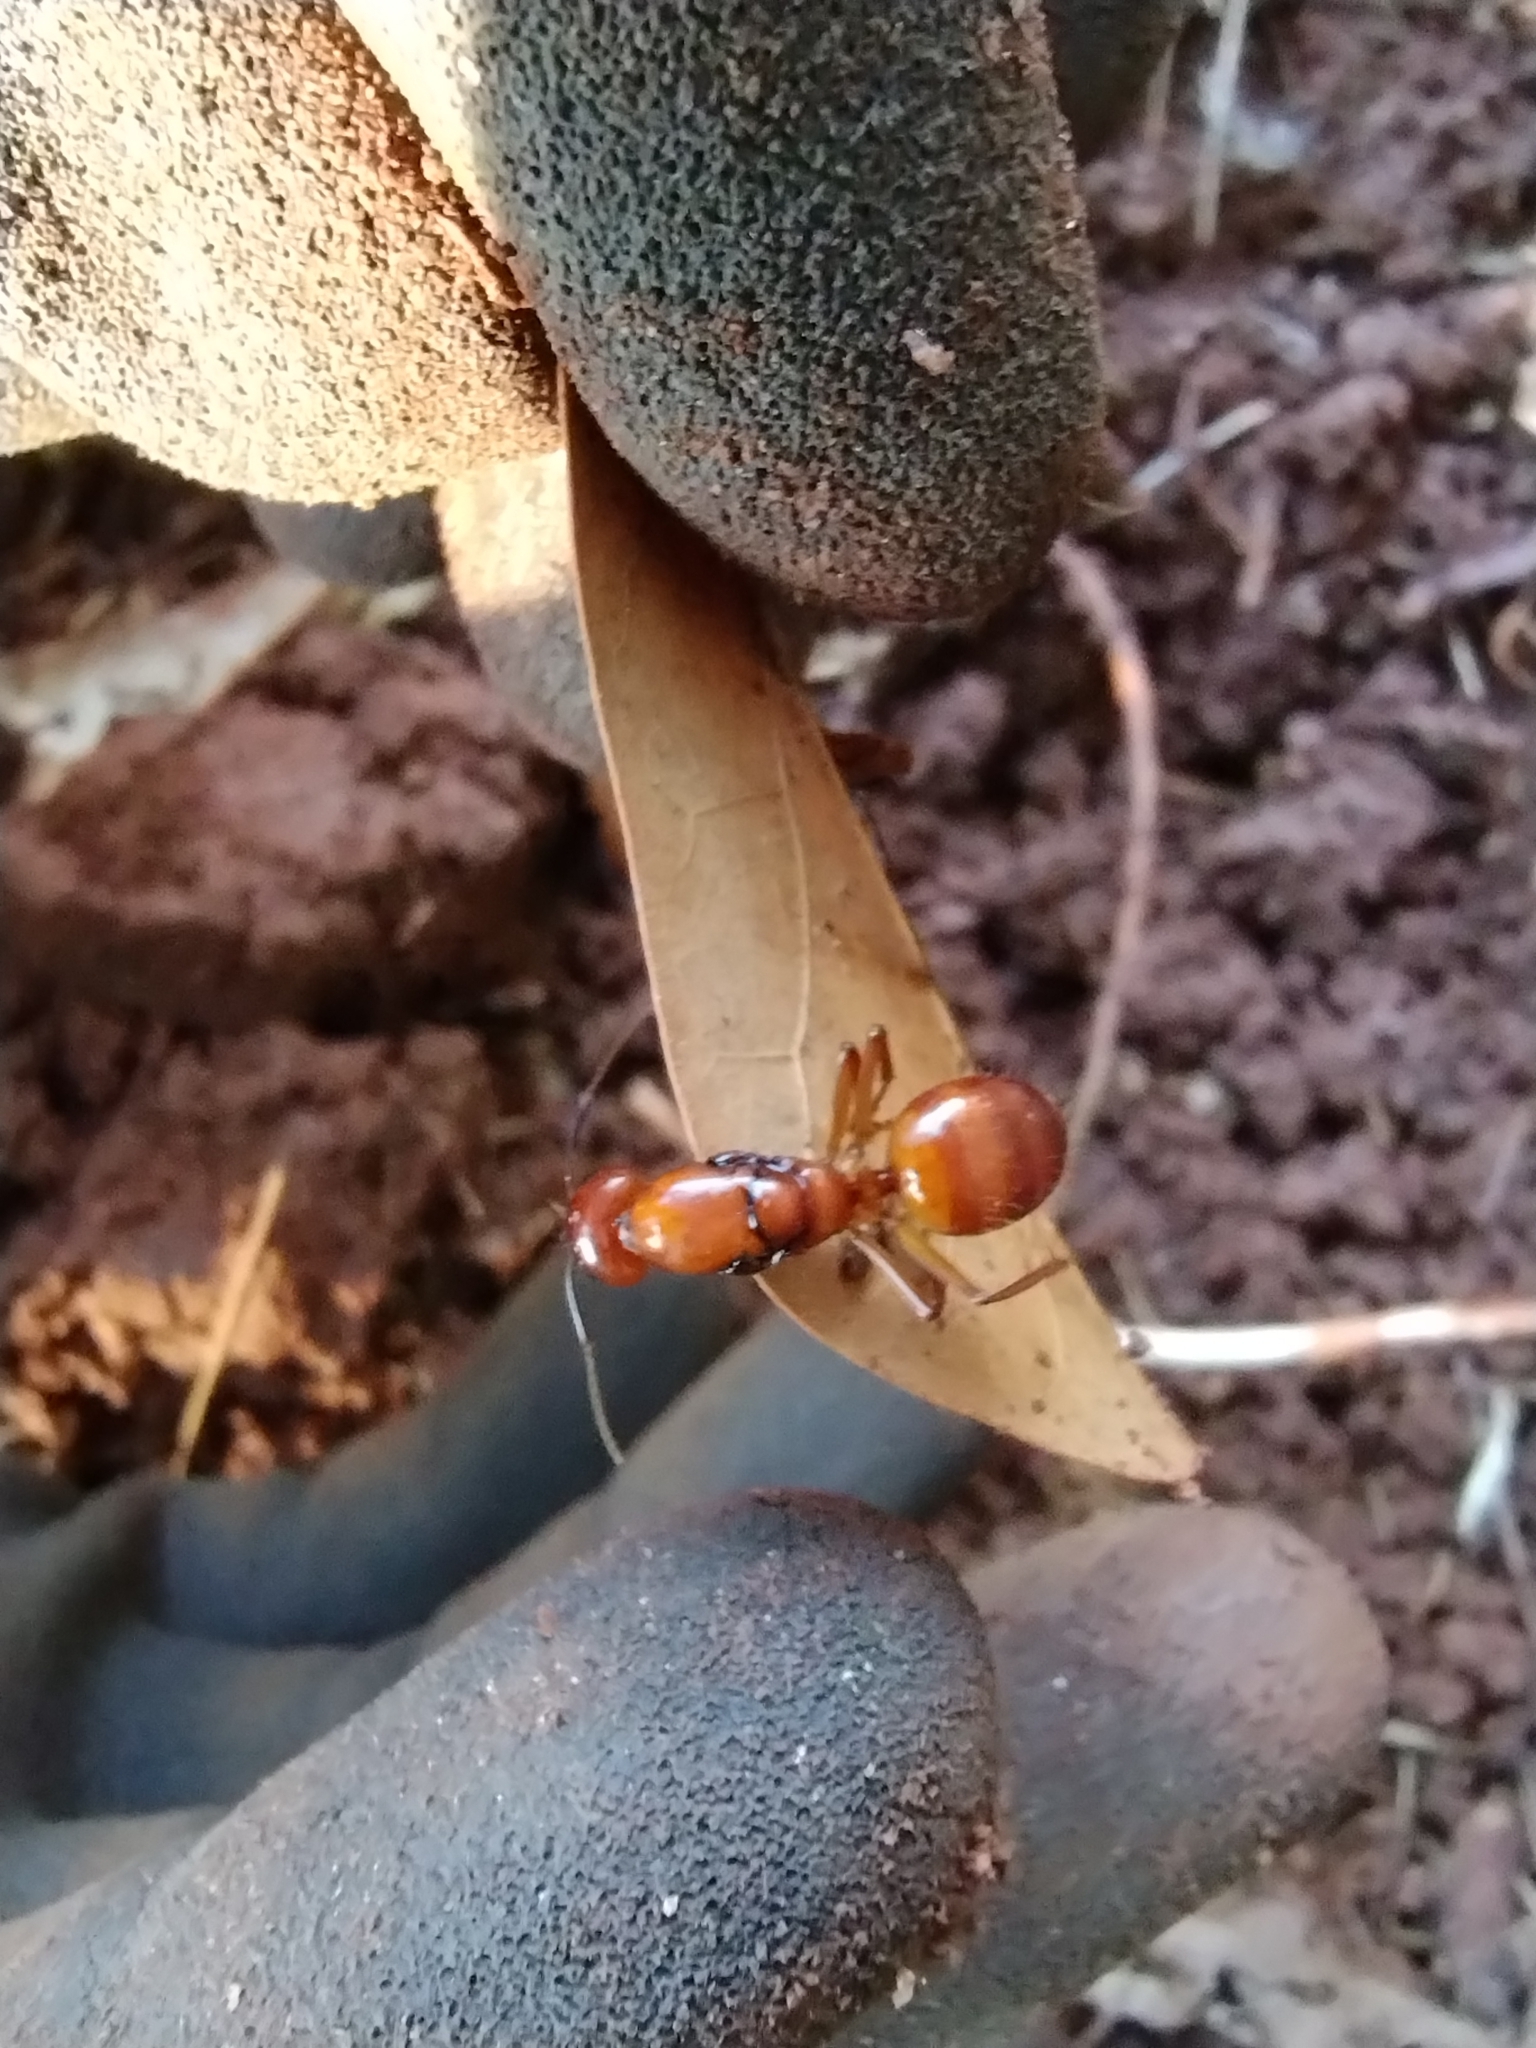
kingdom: Animalia
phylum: Arthropoda
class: Insecta
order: Hymenoptera
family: Formicidae
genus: Camponotus
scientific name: Camponotus castaneus
